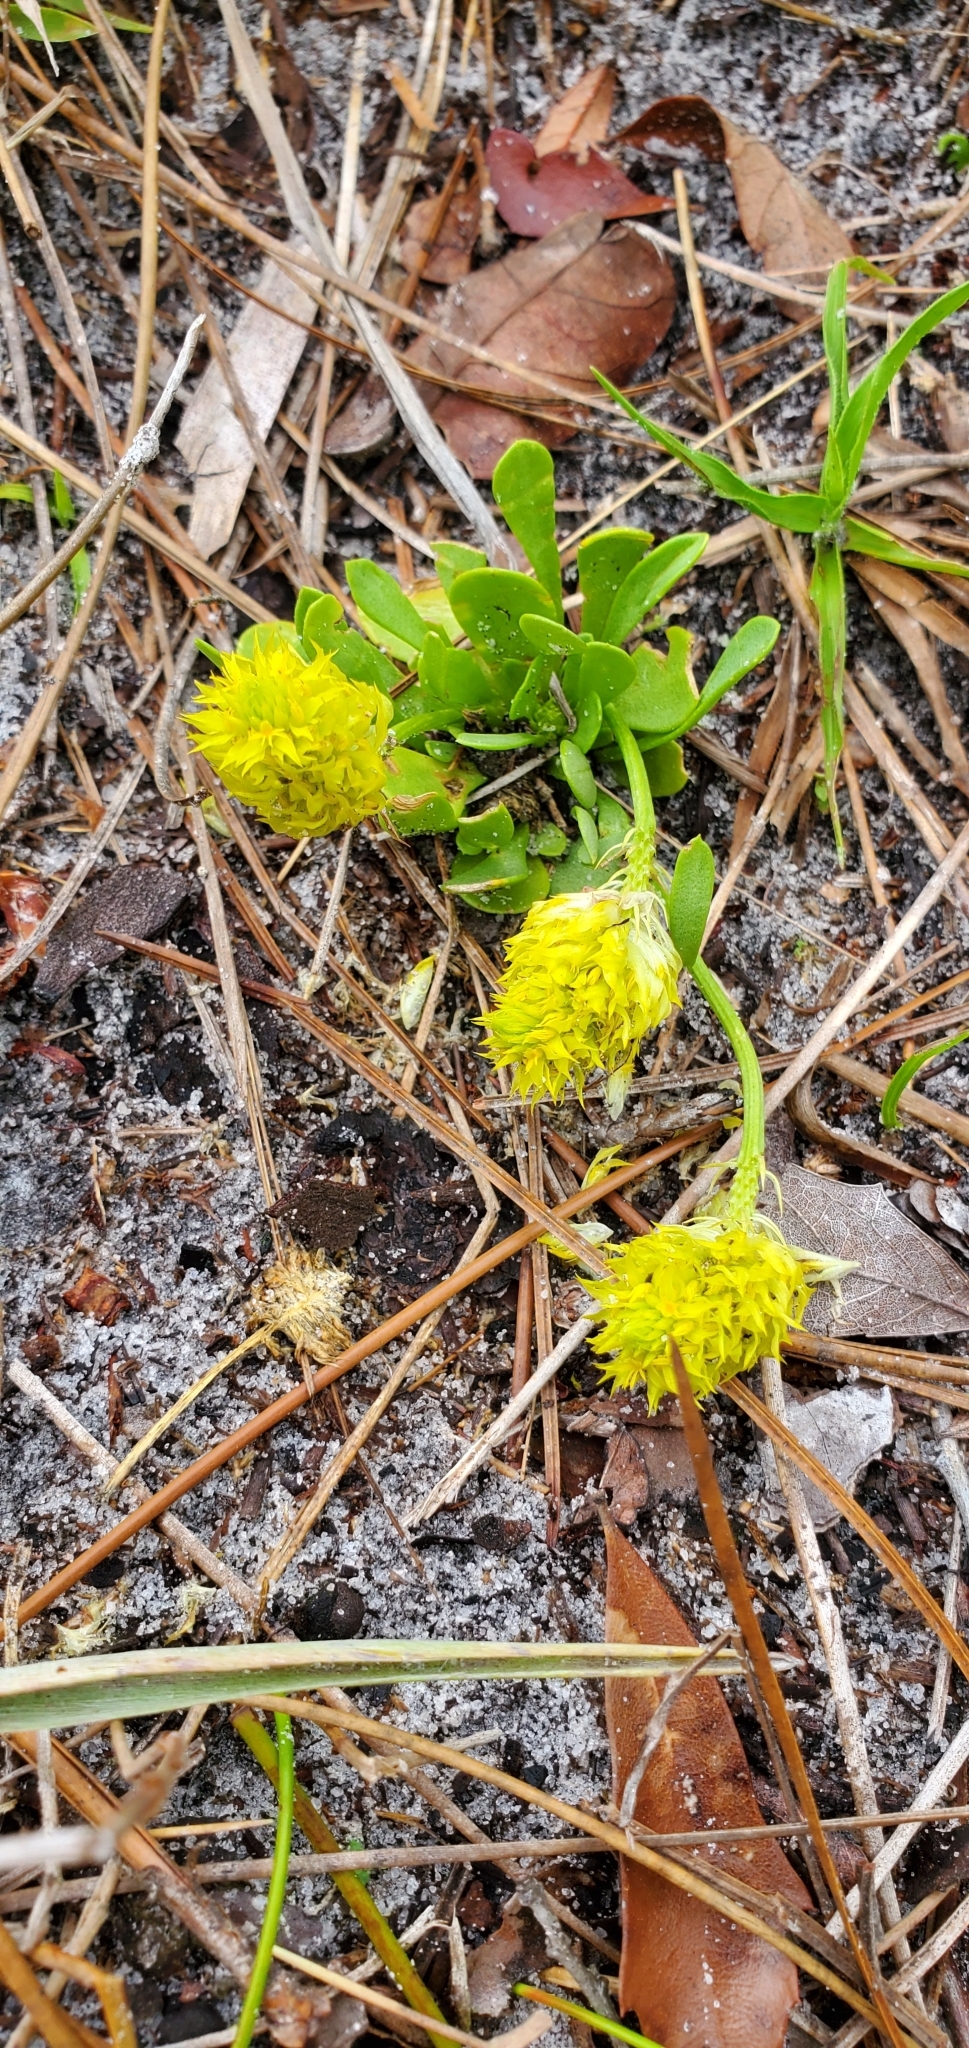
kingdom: Plantae
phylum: Tracheophyta
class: Magnoliopsida
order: Fabales
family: Polygalaceae
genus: Polygala
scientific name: Polygala nana
